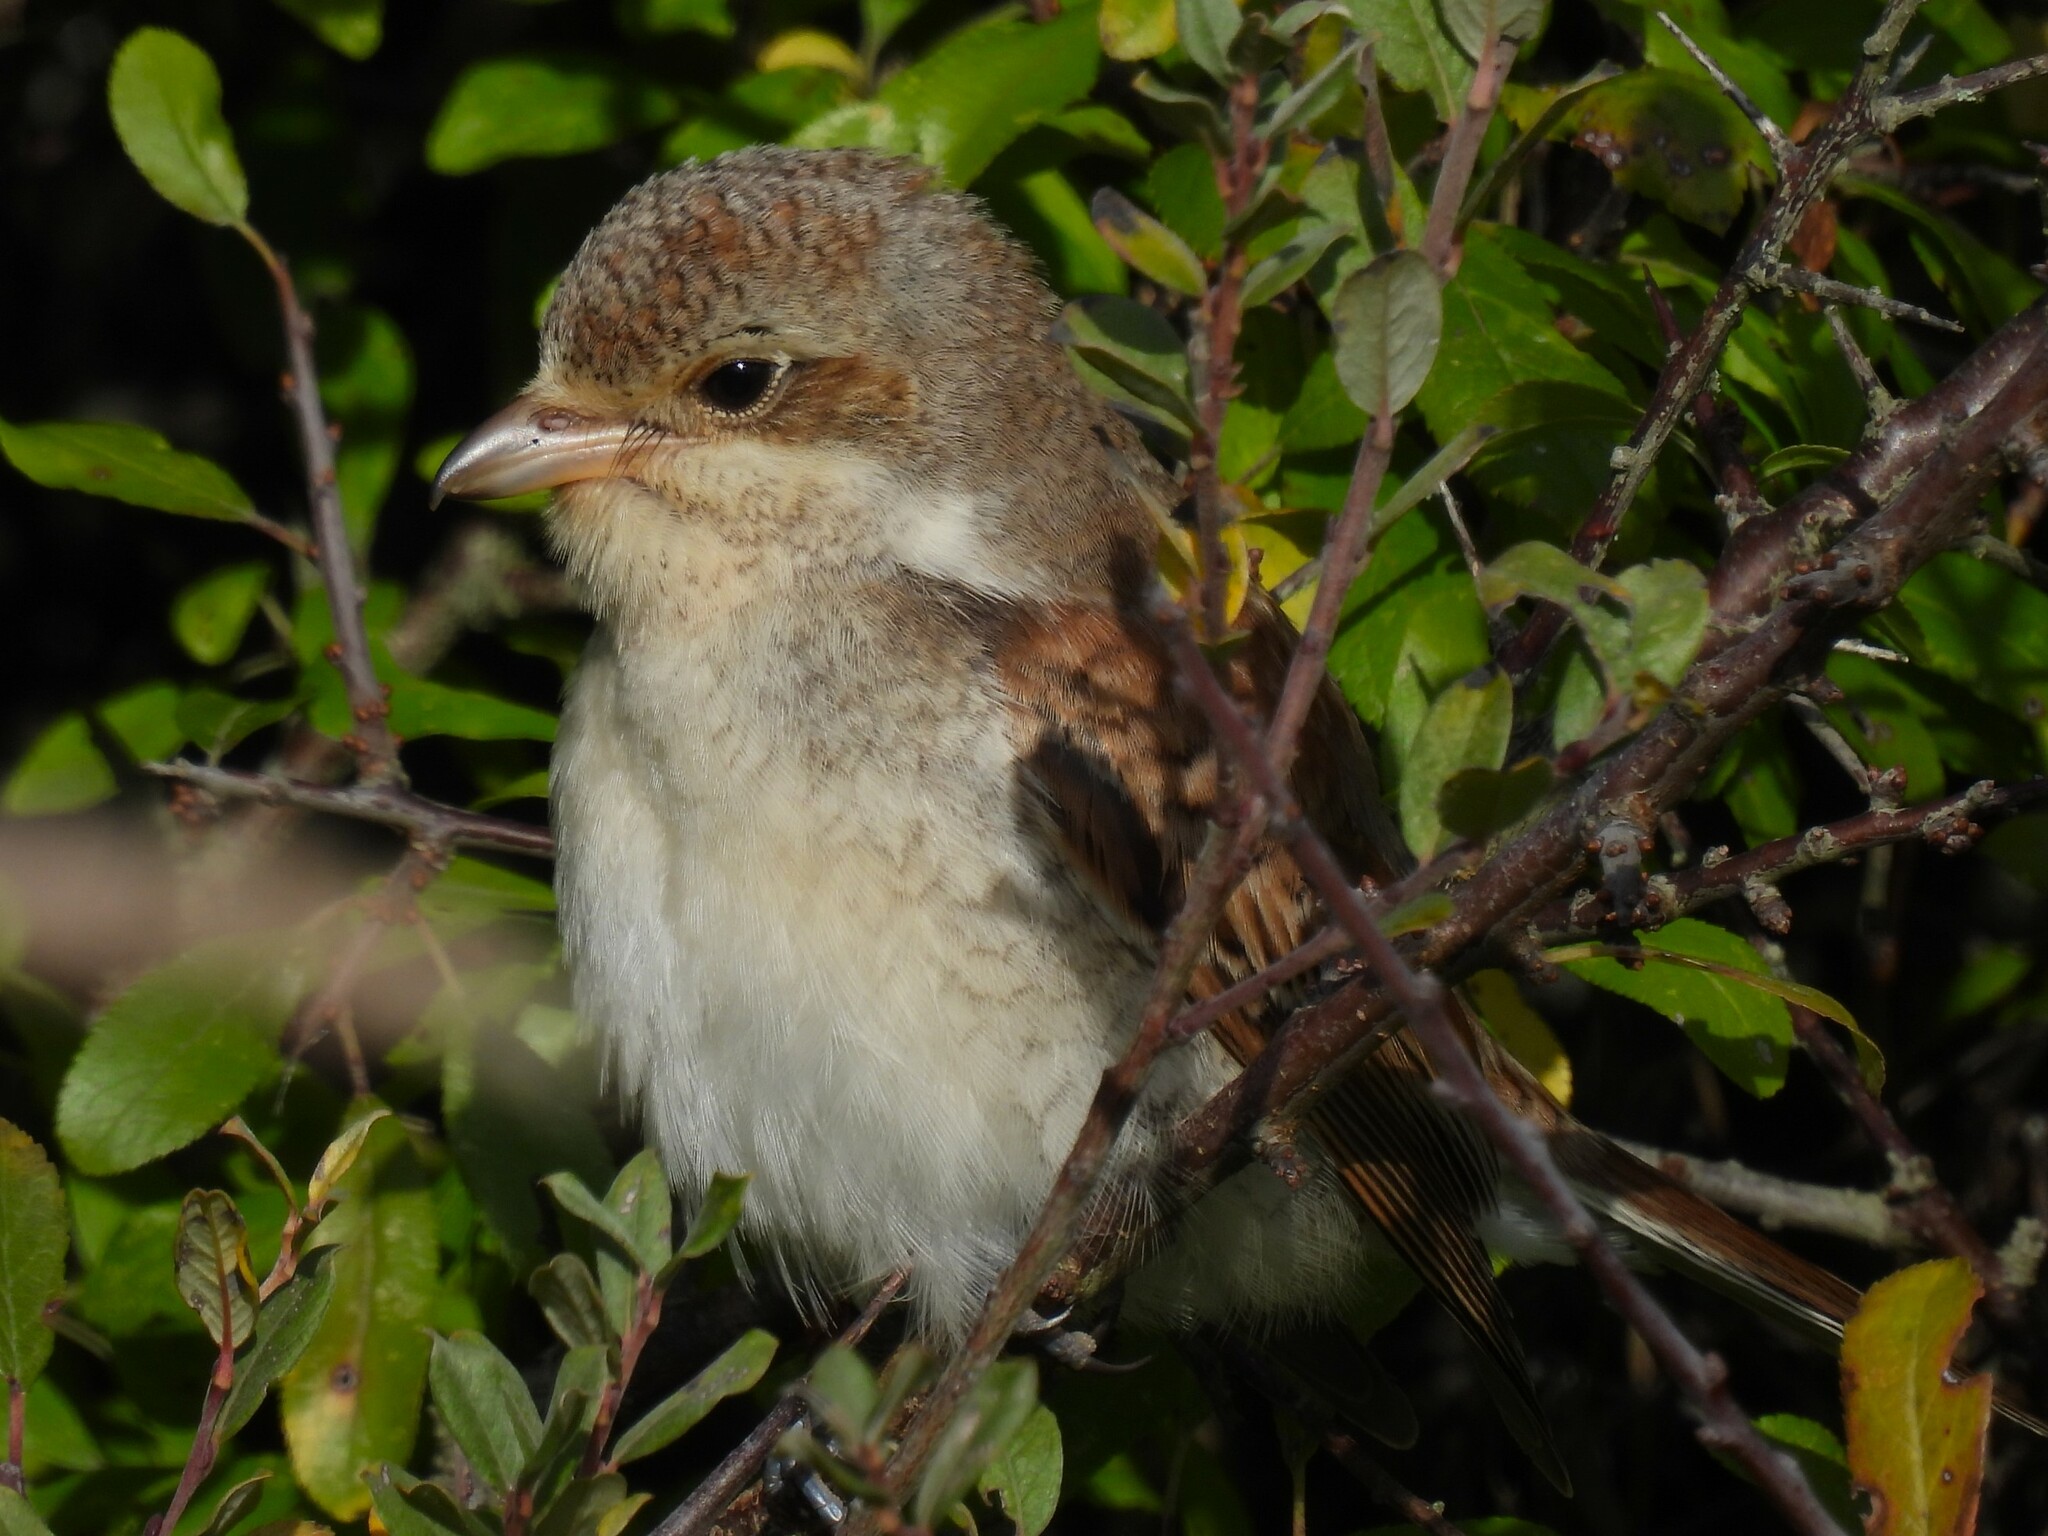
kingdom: Animalia
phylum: Chordata
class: Aves
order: Passeriformes
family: Laniidae
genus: Lanius
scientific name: Lanius collurio
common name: Red-backed shrike
